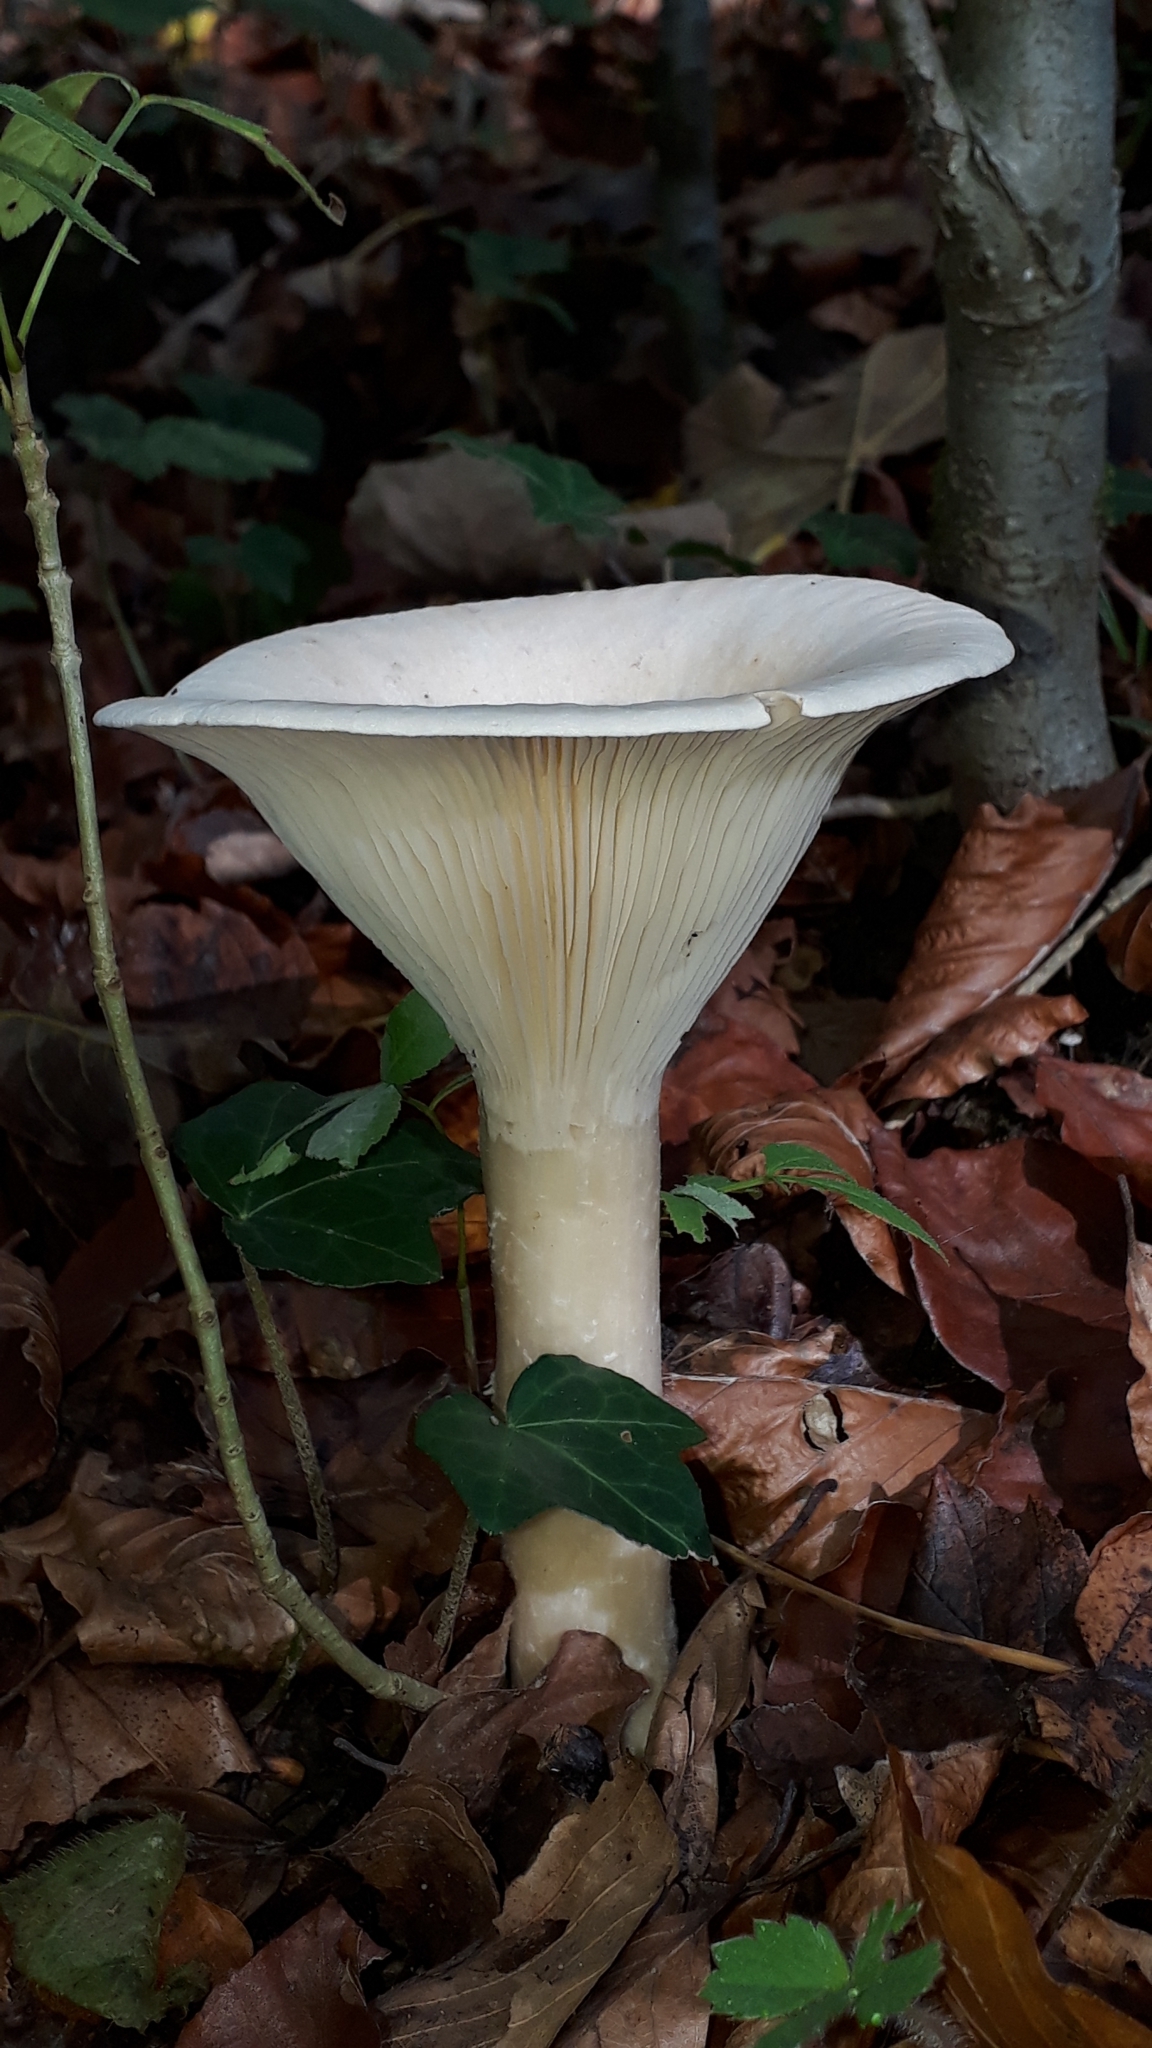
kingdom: Fungi
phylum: Basidiomycota
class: Agaricomycetes
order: Agaricales
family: Tricholomataceae
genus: Infundibulicybe
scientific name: Infundibulicybe geotropa
